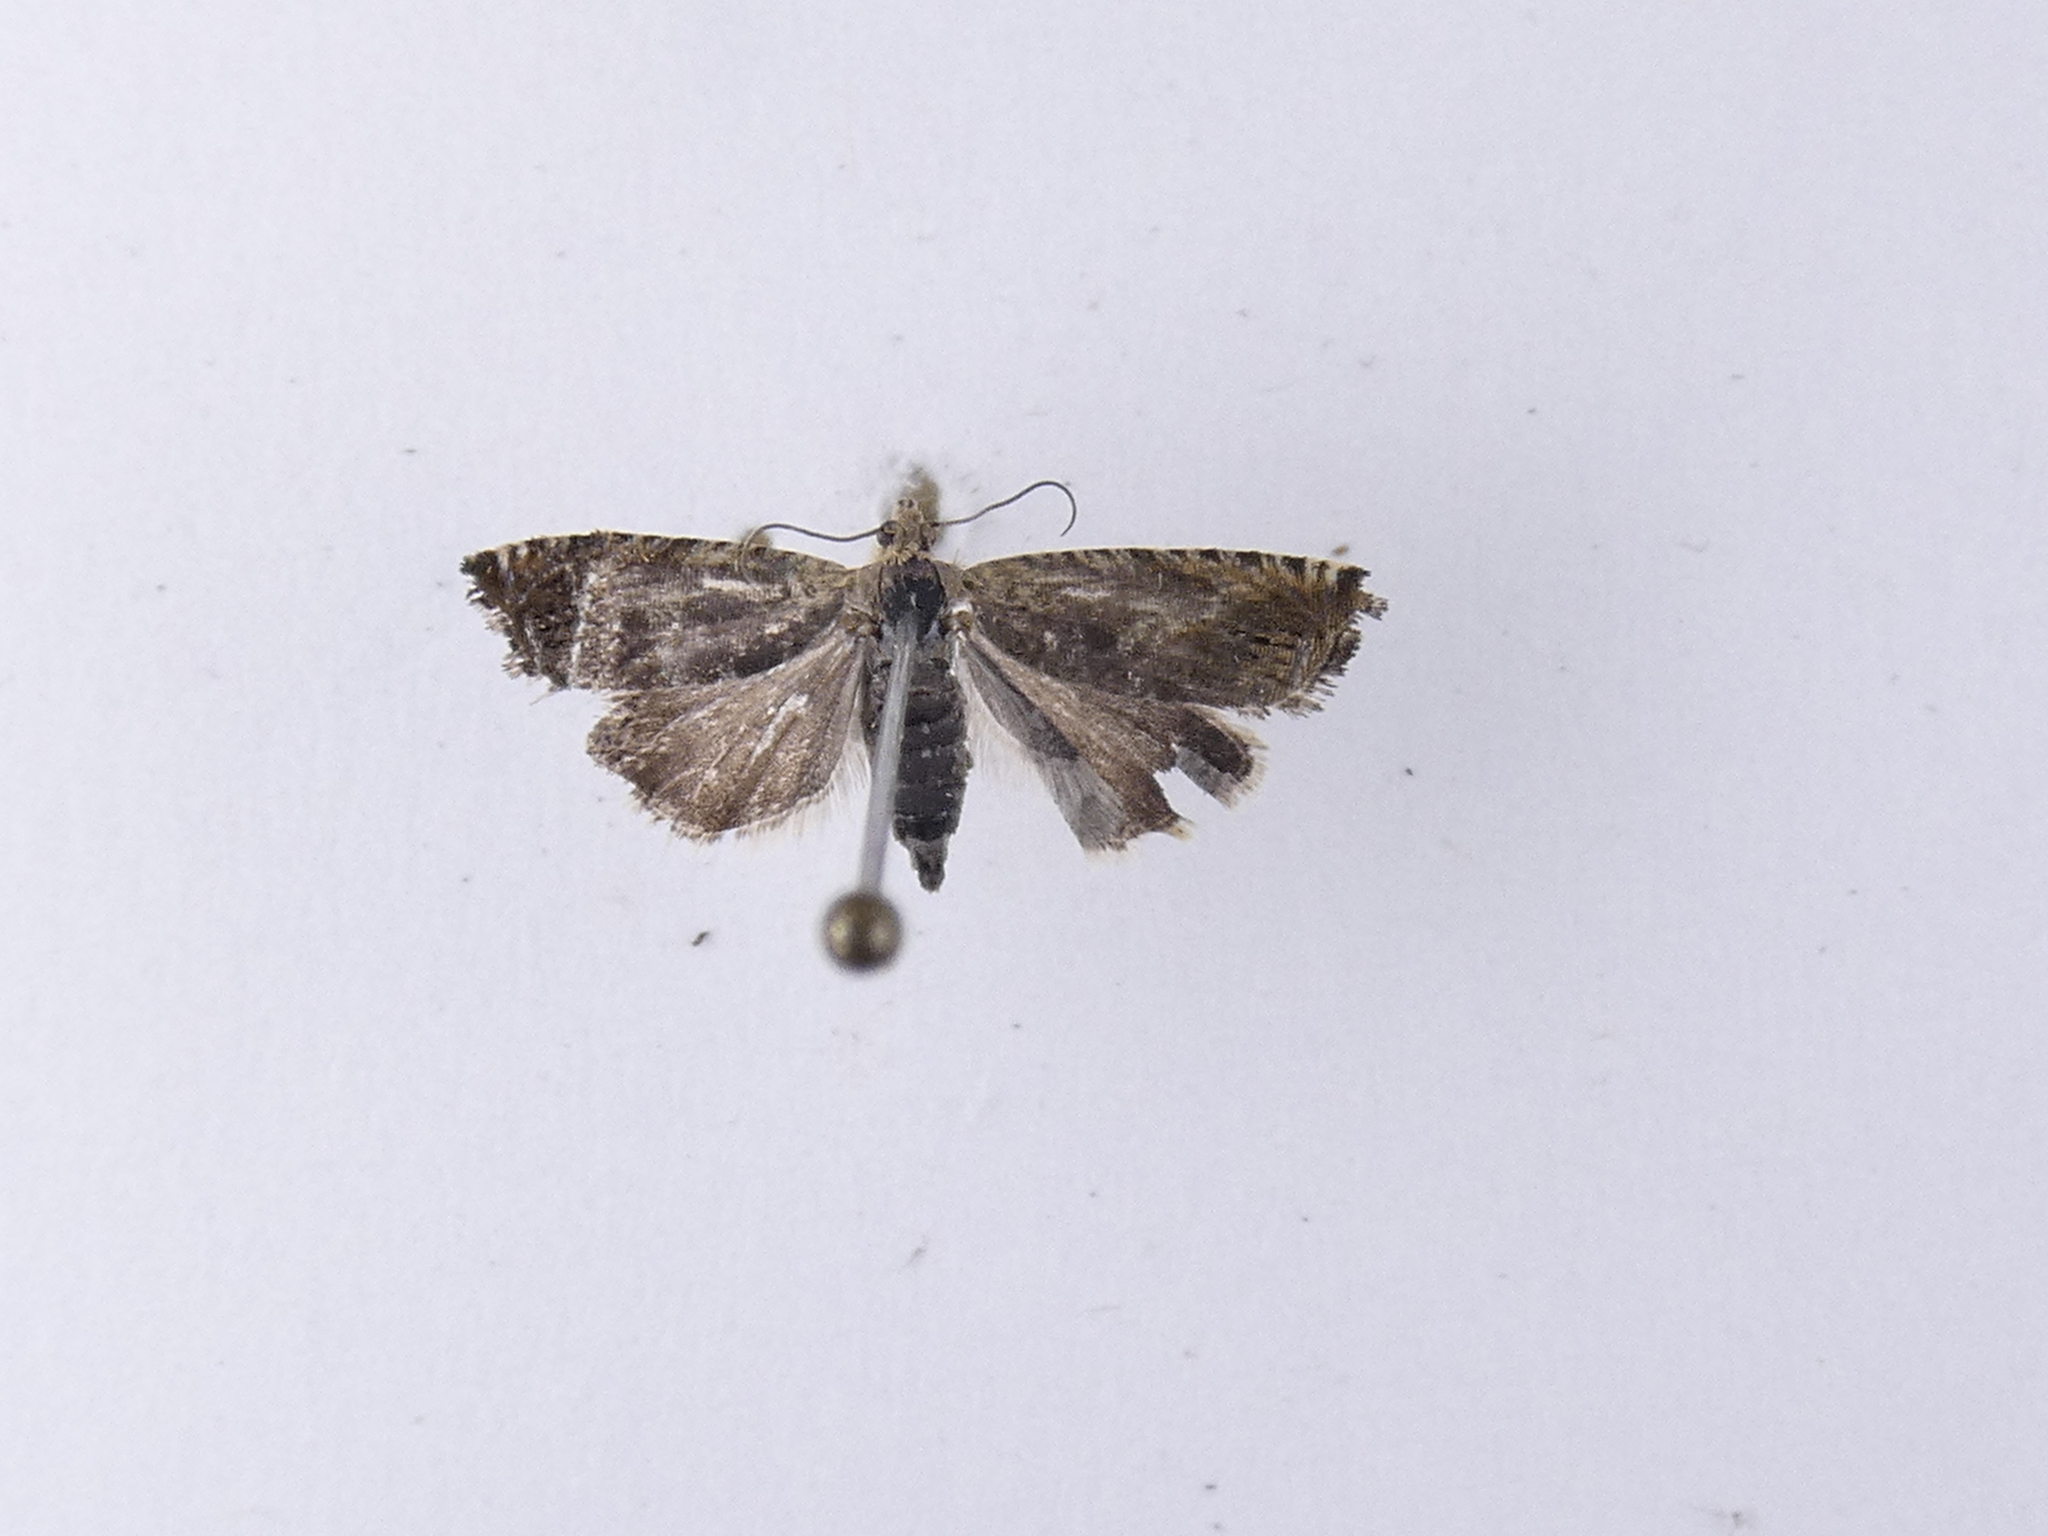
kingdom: Animalia
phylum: Arthropoda
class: Insecta
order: Lepidoptera
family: Tortricidae
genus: Cydia
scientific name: Cydia succedana
